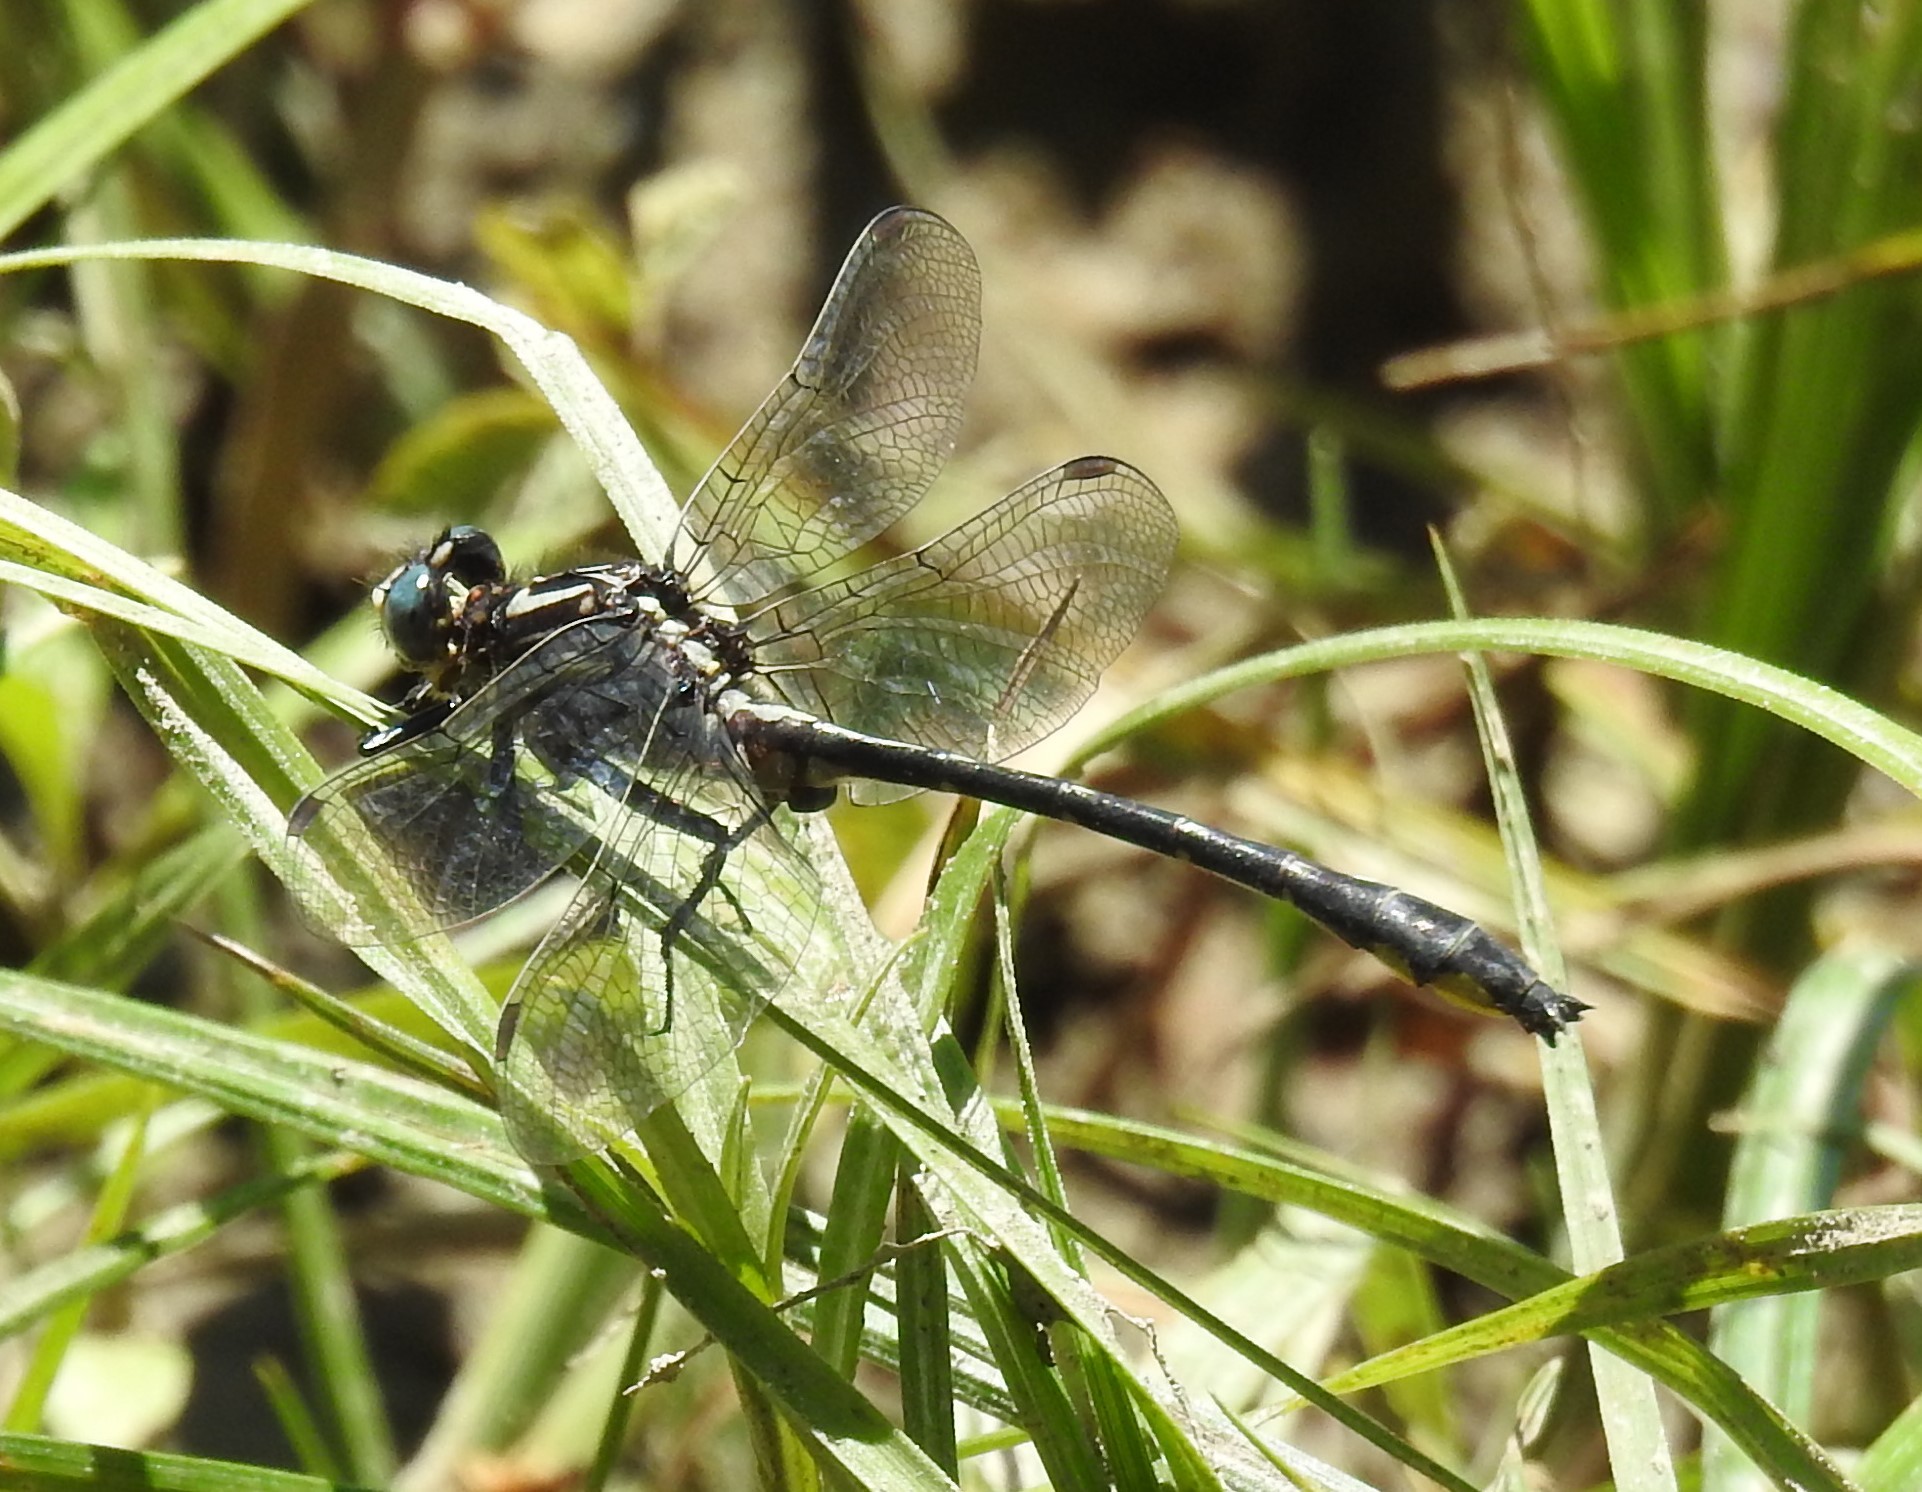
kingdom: Animalia
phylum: Arthropoda
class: Insecta
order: Odonata
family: Gomphidae
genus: Phanogomphus
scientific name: Phanogomphus quadricolor
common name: Rapids clubtail
